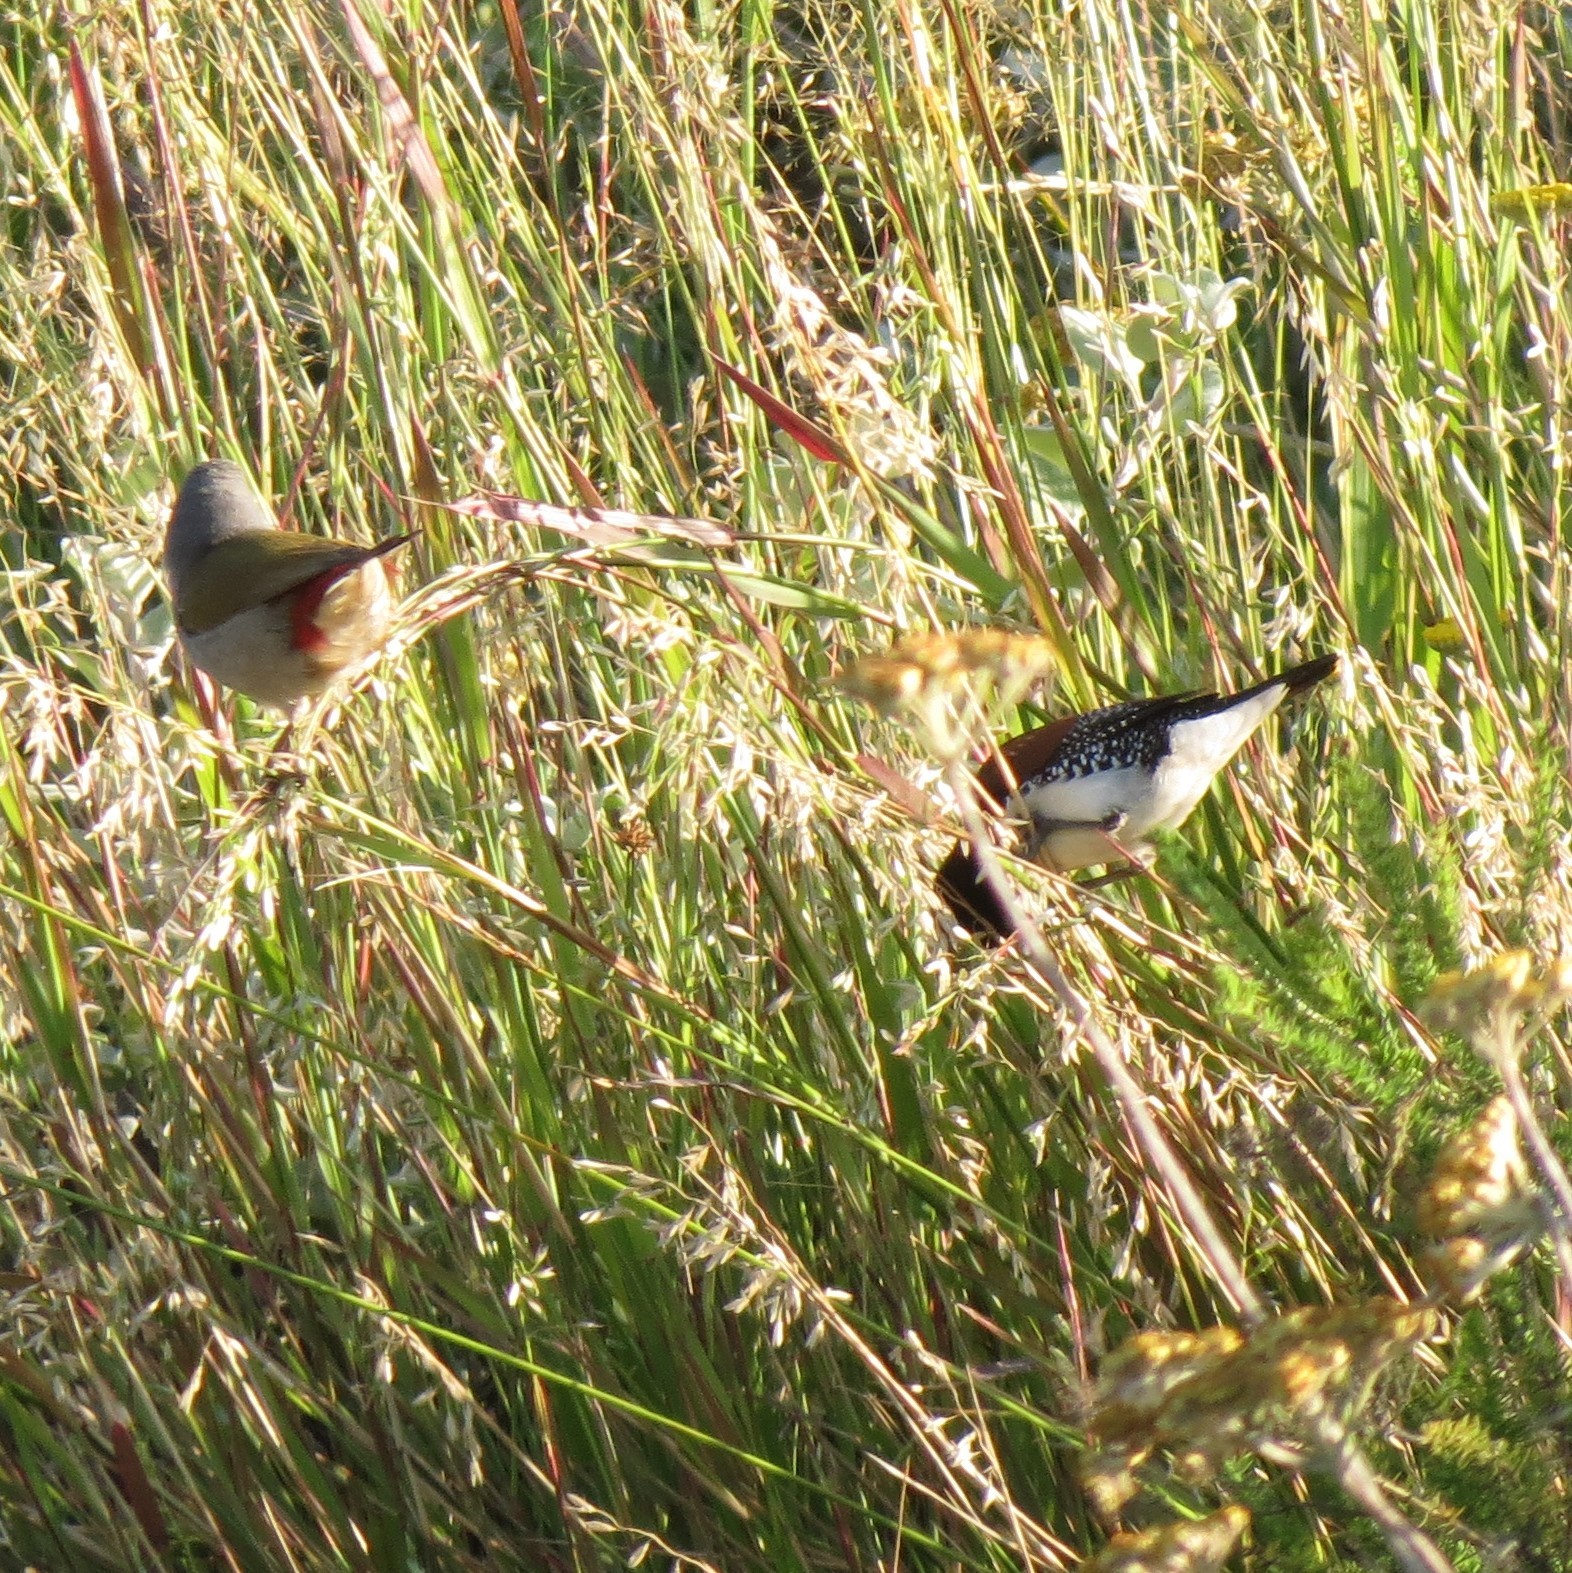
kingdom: Animalia
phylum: Chordata
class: Aves
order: Passeriformes
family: Estrildidae
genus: Lonchura
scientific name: Lonchura nigriceps
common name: Red-backed mannikin
